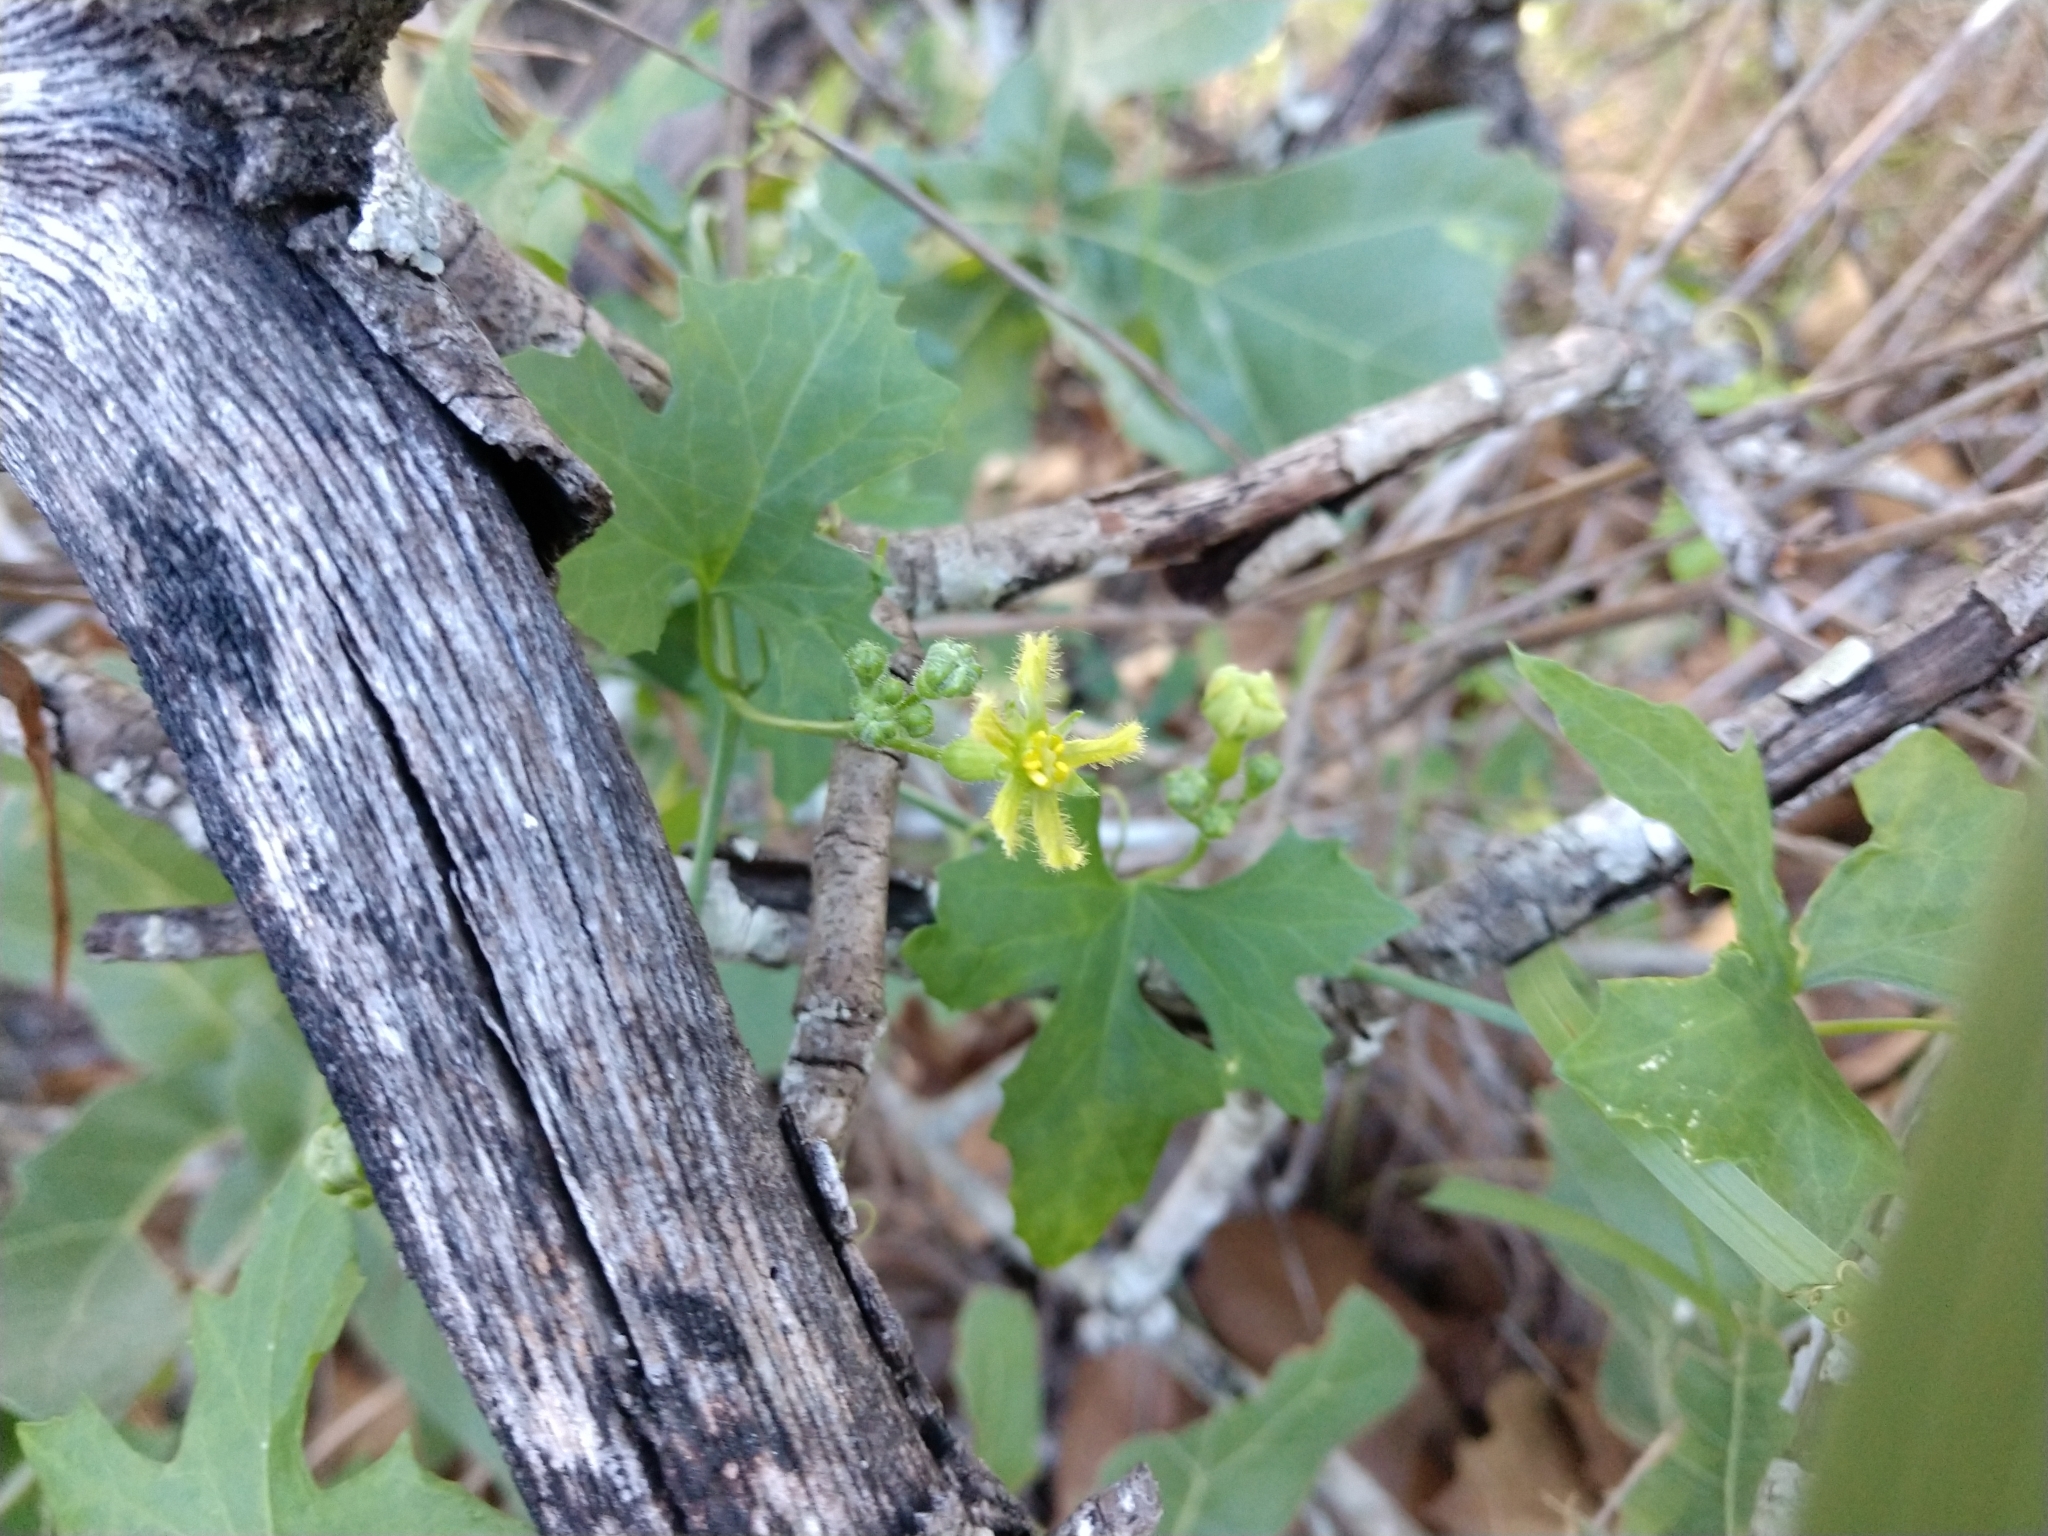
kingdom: Plantae
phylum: Tracheophyta
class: Magnoliopsida
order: Cucurbitales
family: Cucurbitaceae
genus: Ibervillea
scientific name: Ibervillea lindheimeri
